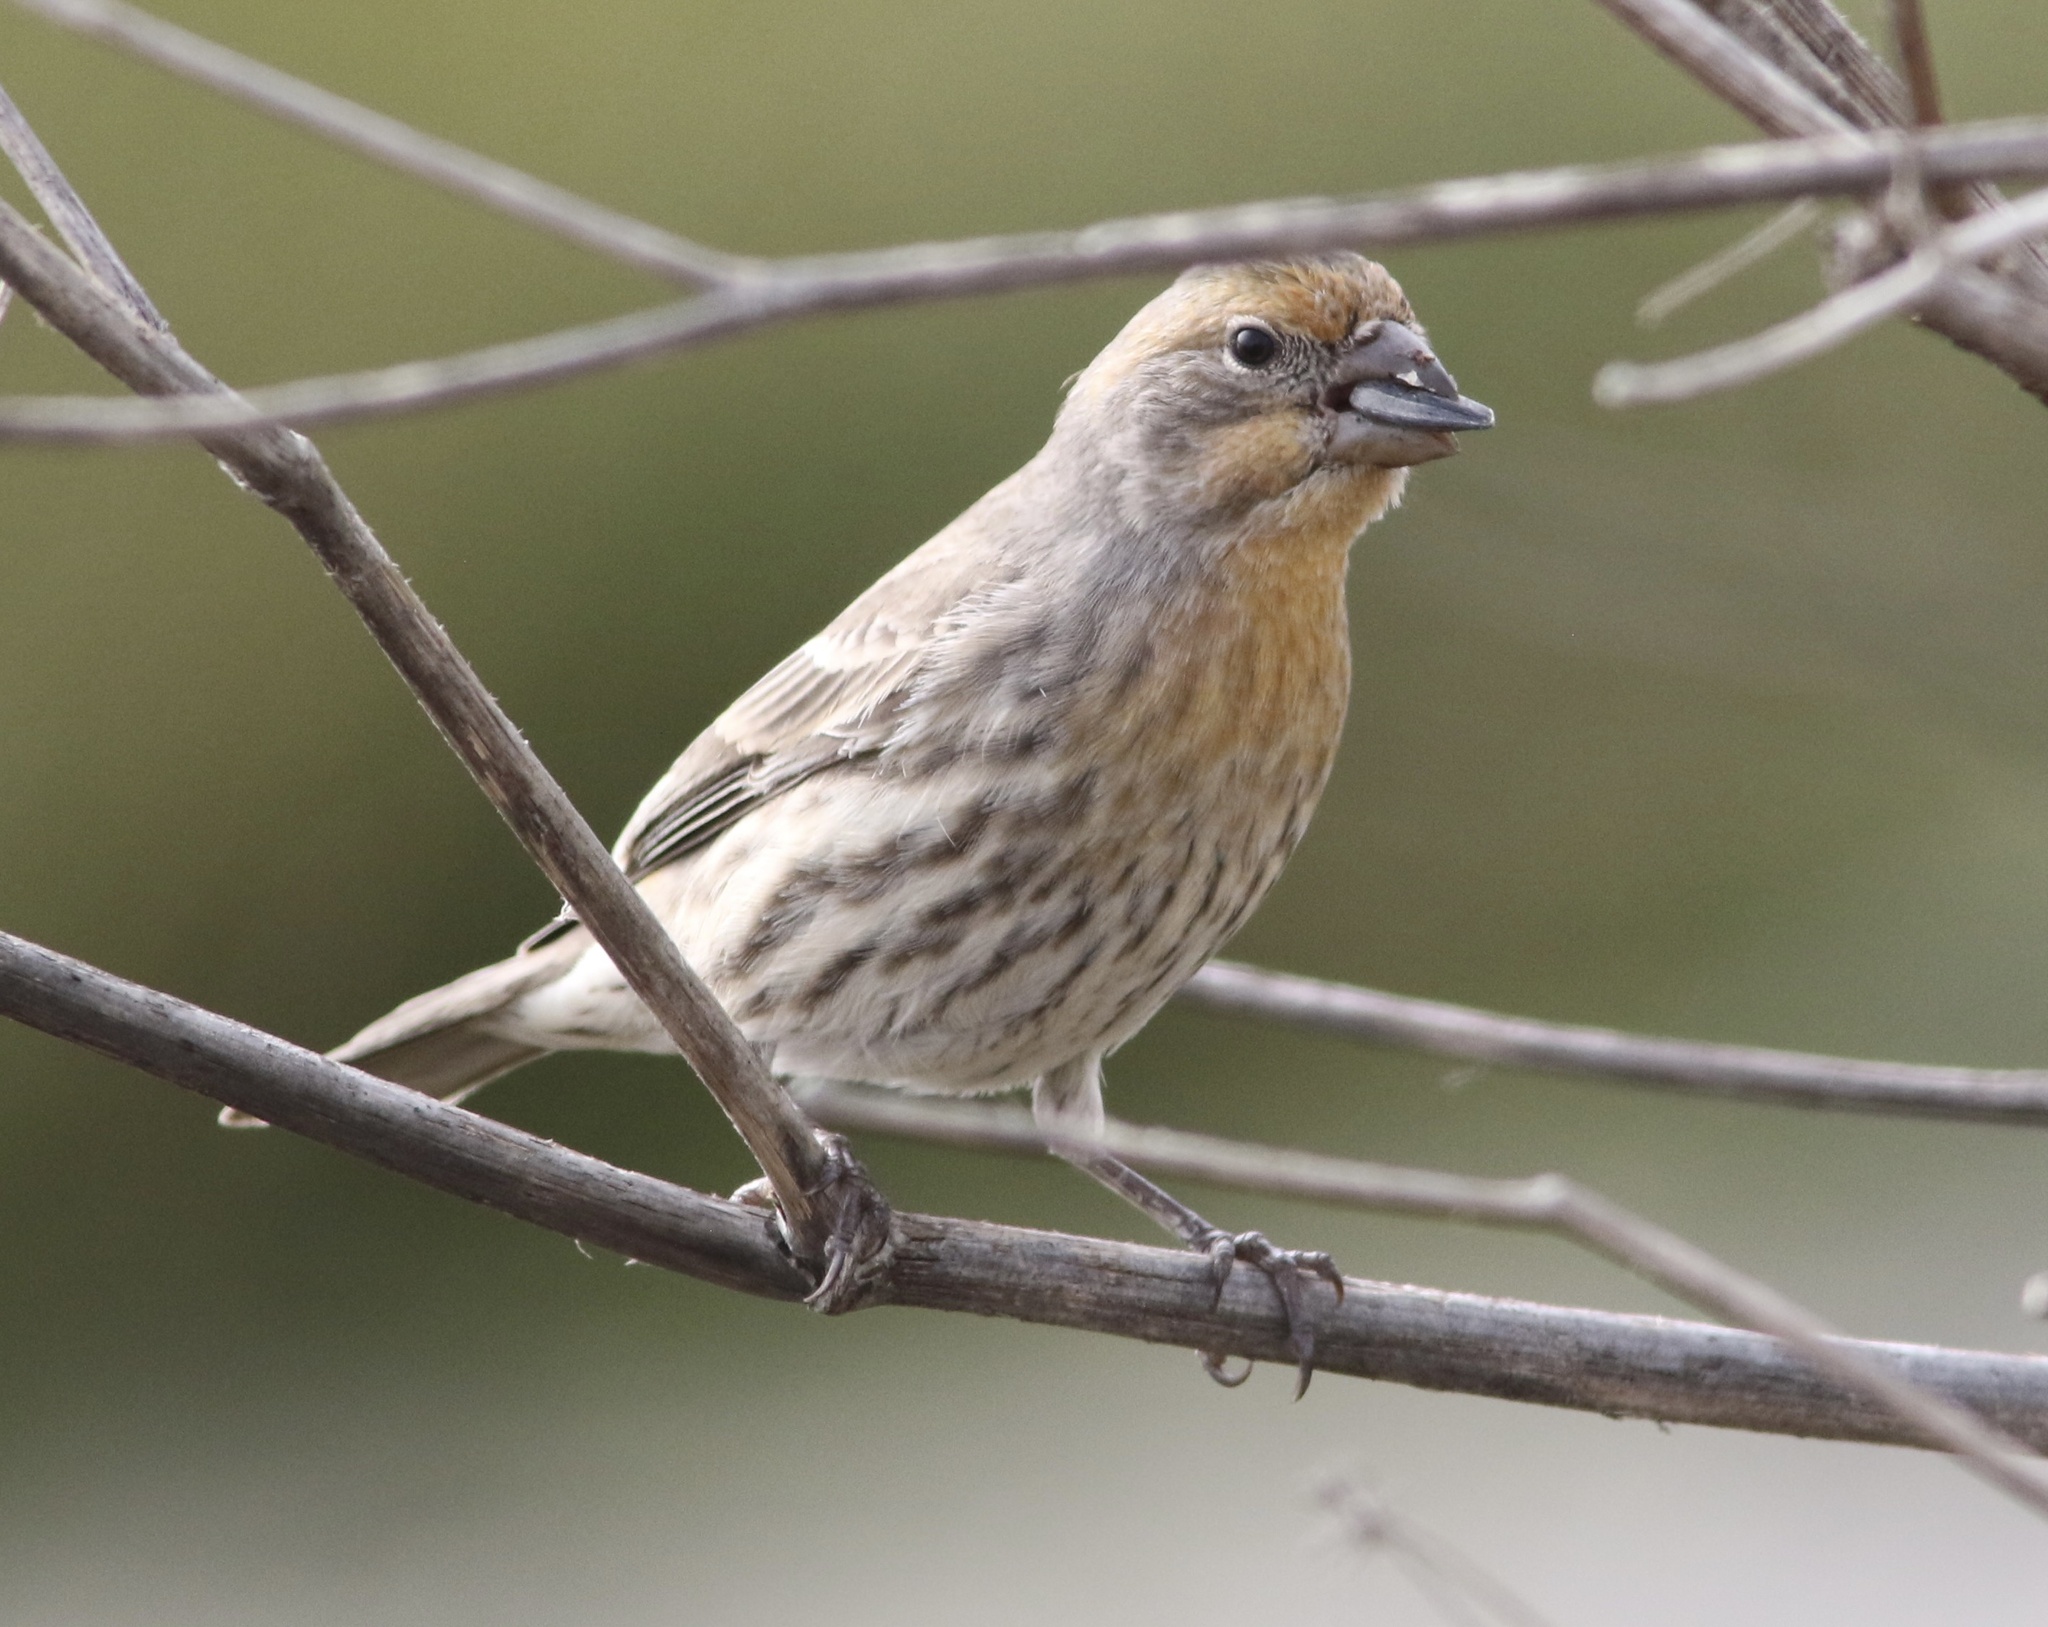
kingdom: Animalia
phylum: Chordata
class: Aves
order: Passeriformes
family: Fringillidae
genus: Haemorhous
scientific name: Haemorhous mexicanus
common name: House finch
